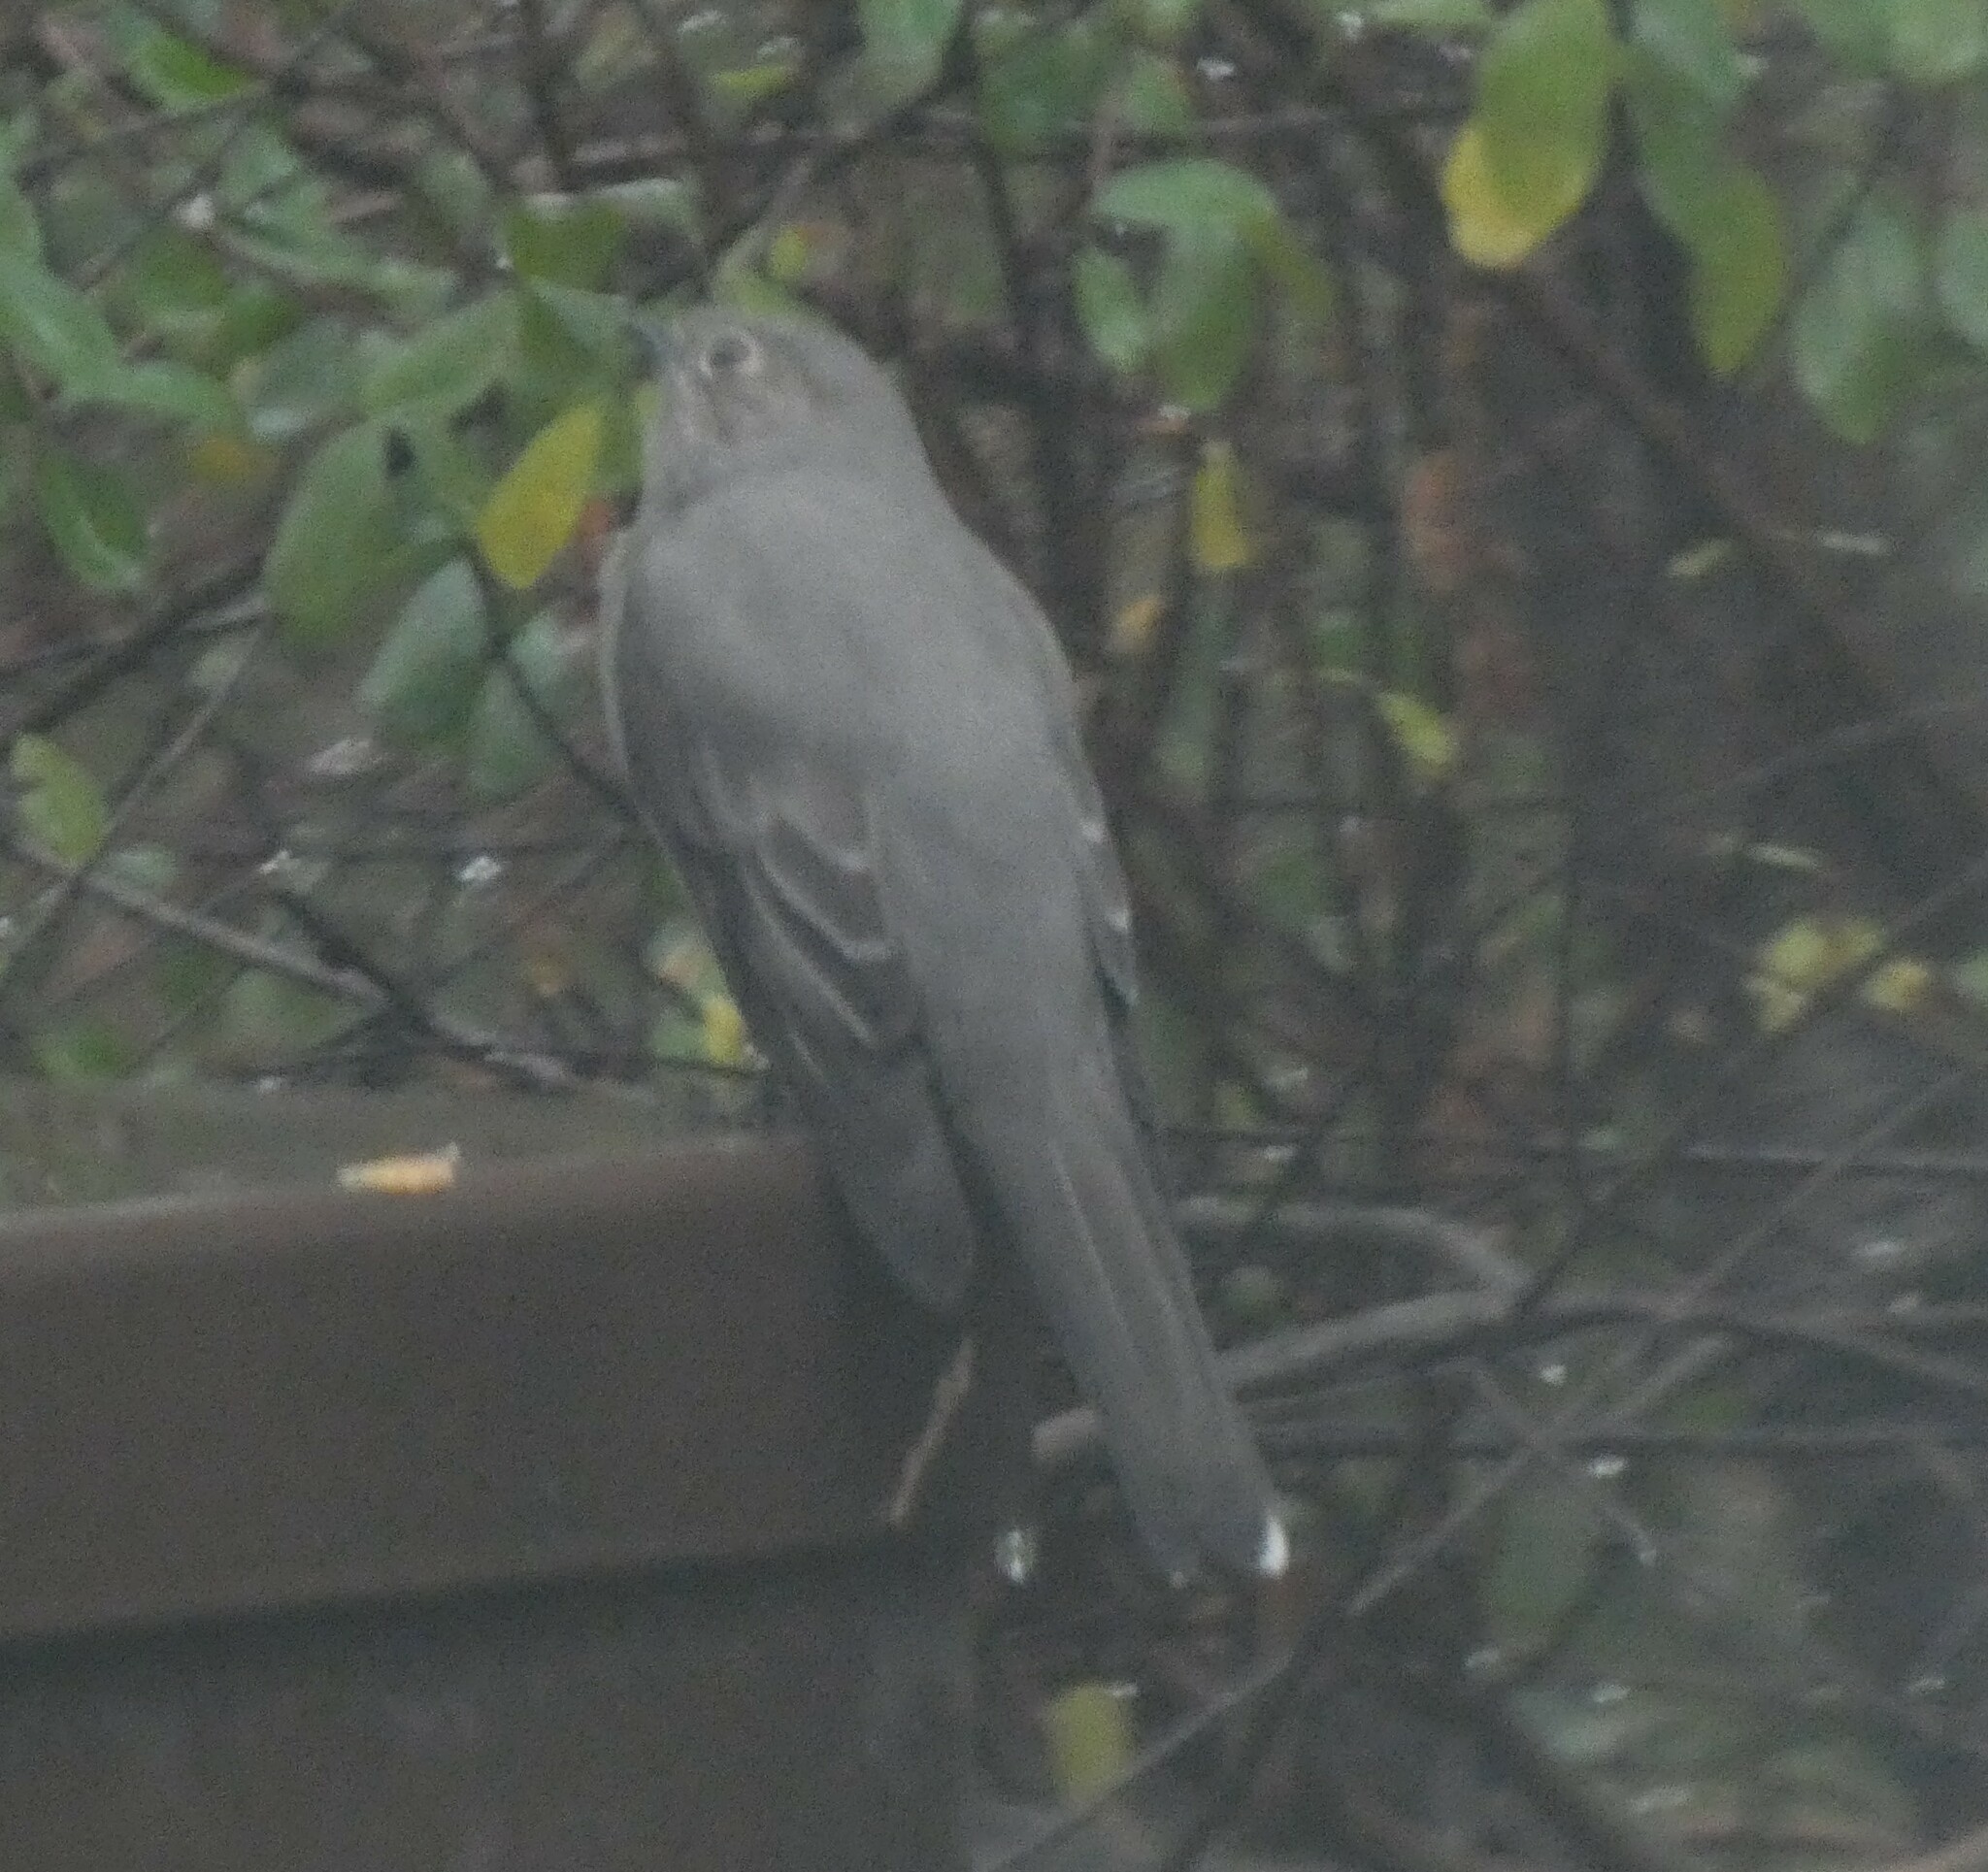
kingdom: Animalia
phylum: Chordata
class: Aves
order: Passeriformes
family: Turdidae
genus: Myadestes
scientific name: Myadestes townsendi
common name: Townsend's solitaire
